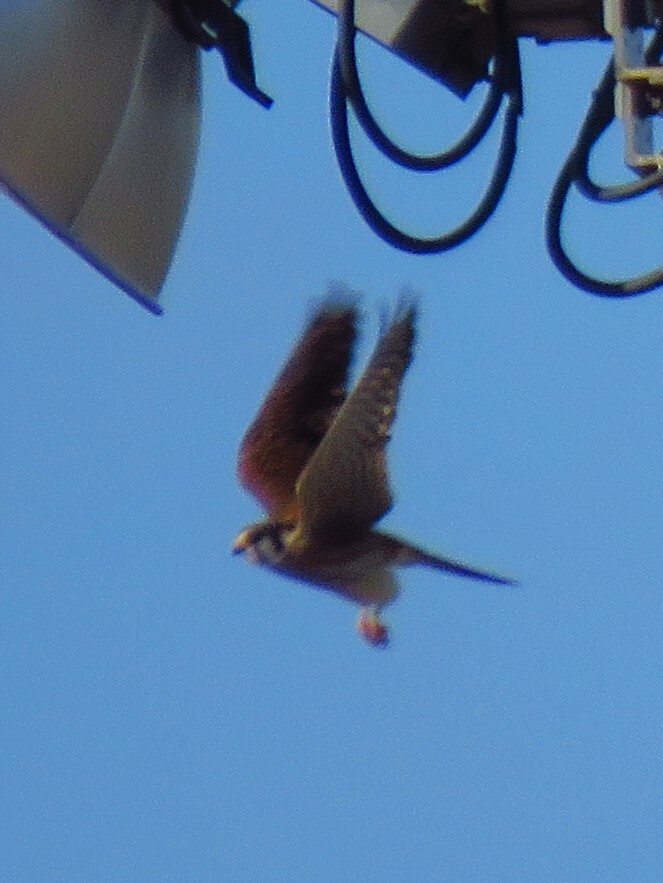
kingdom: Animalia
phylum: Chordata
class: Aves
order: Falconiformes
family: Falconidae
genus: Falco
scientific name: Falco sparverius
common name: American kestrel
